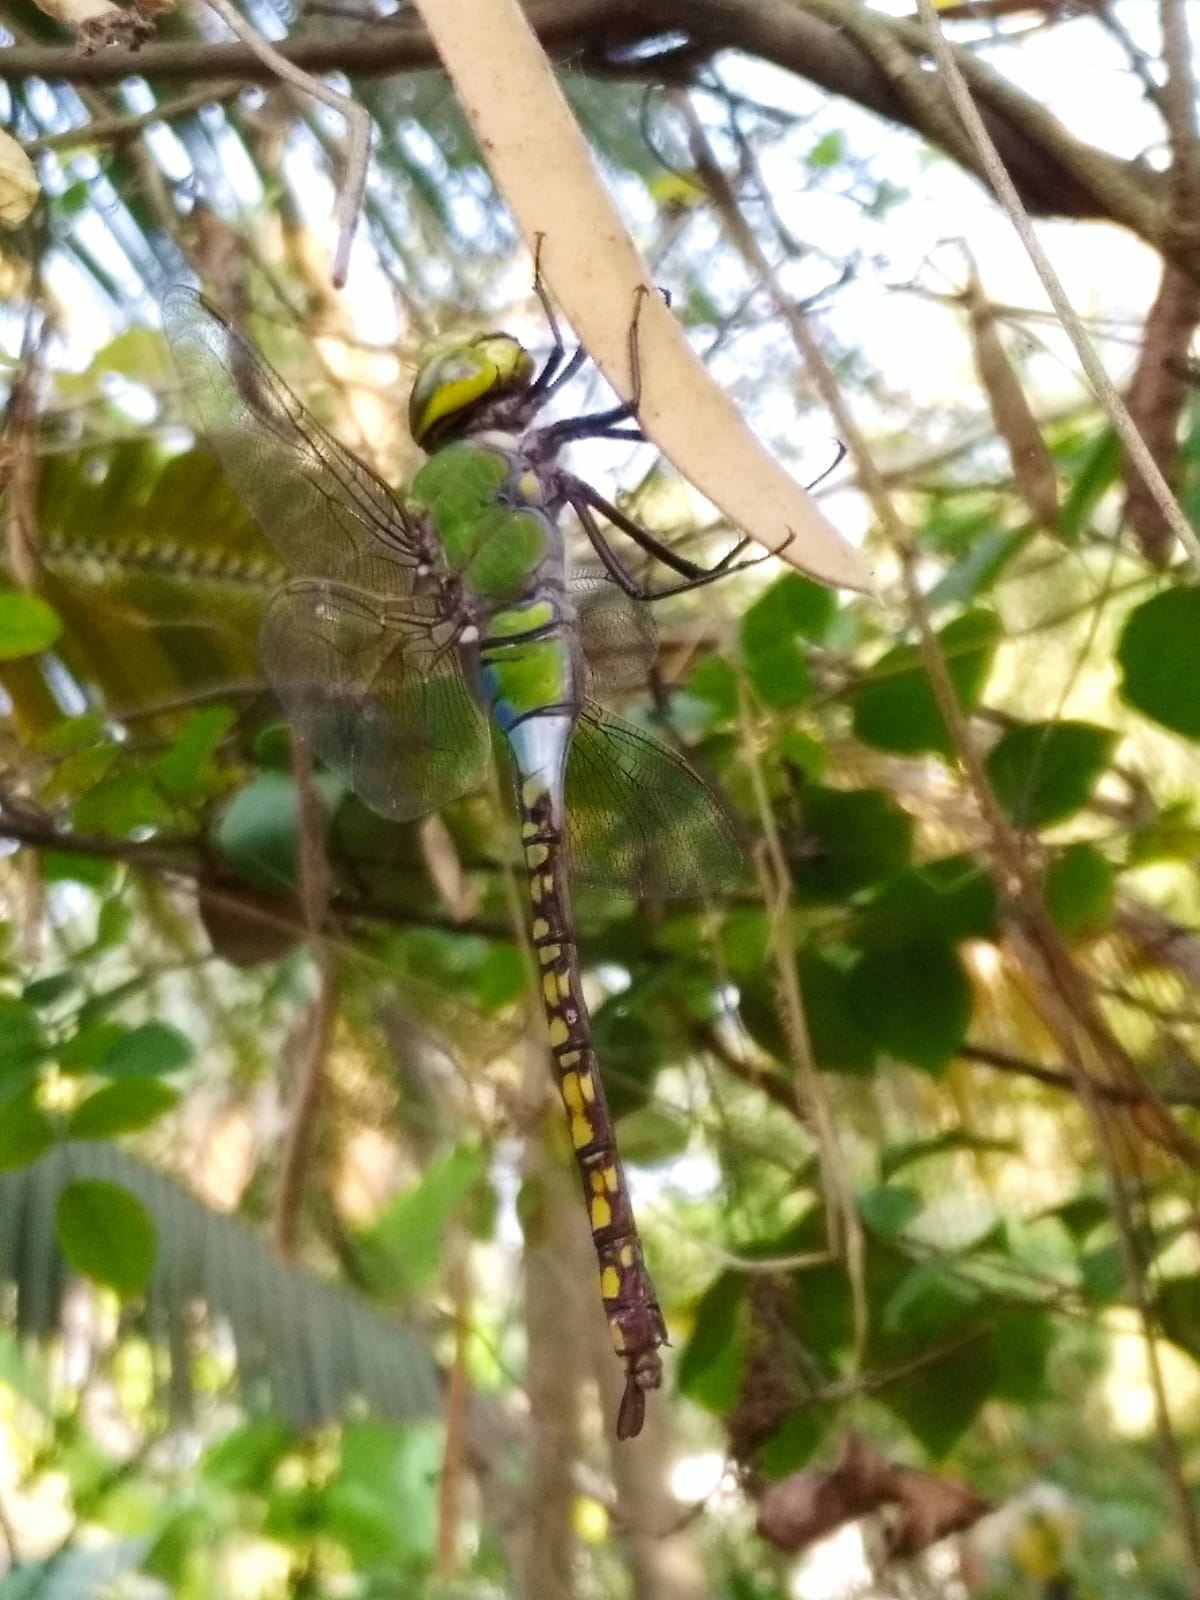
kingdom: Animalia
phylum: Arthropoda
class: Insecta
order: Odonata
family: Aeshnidae
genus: Anax
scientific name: Anax indicus
